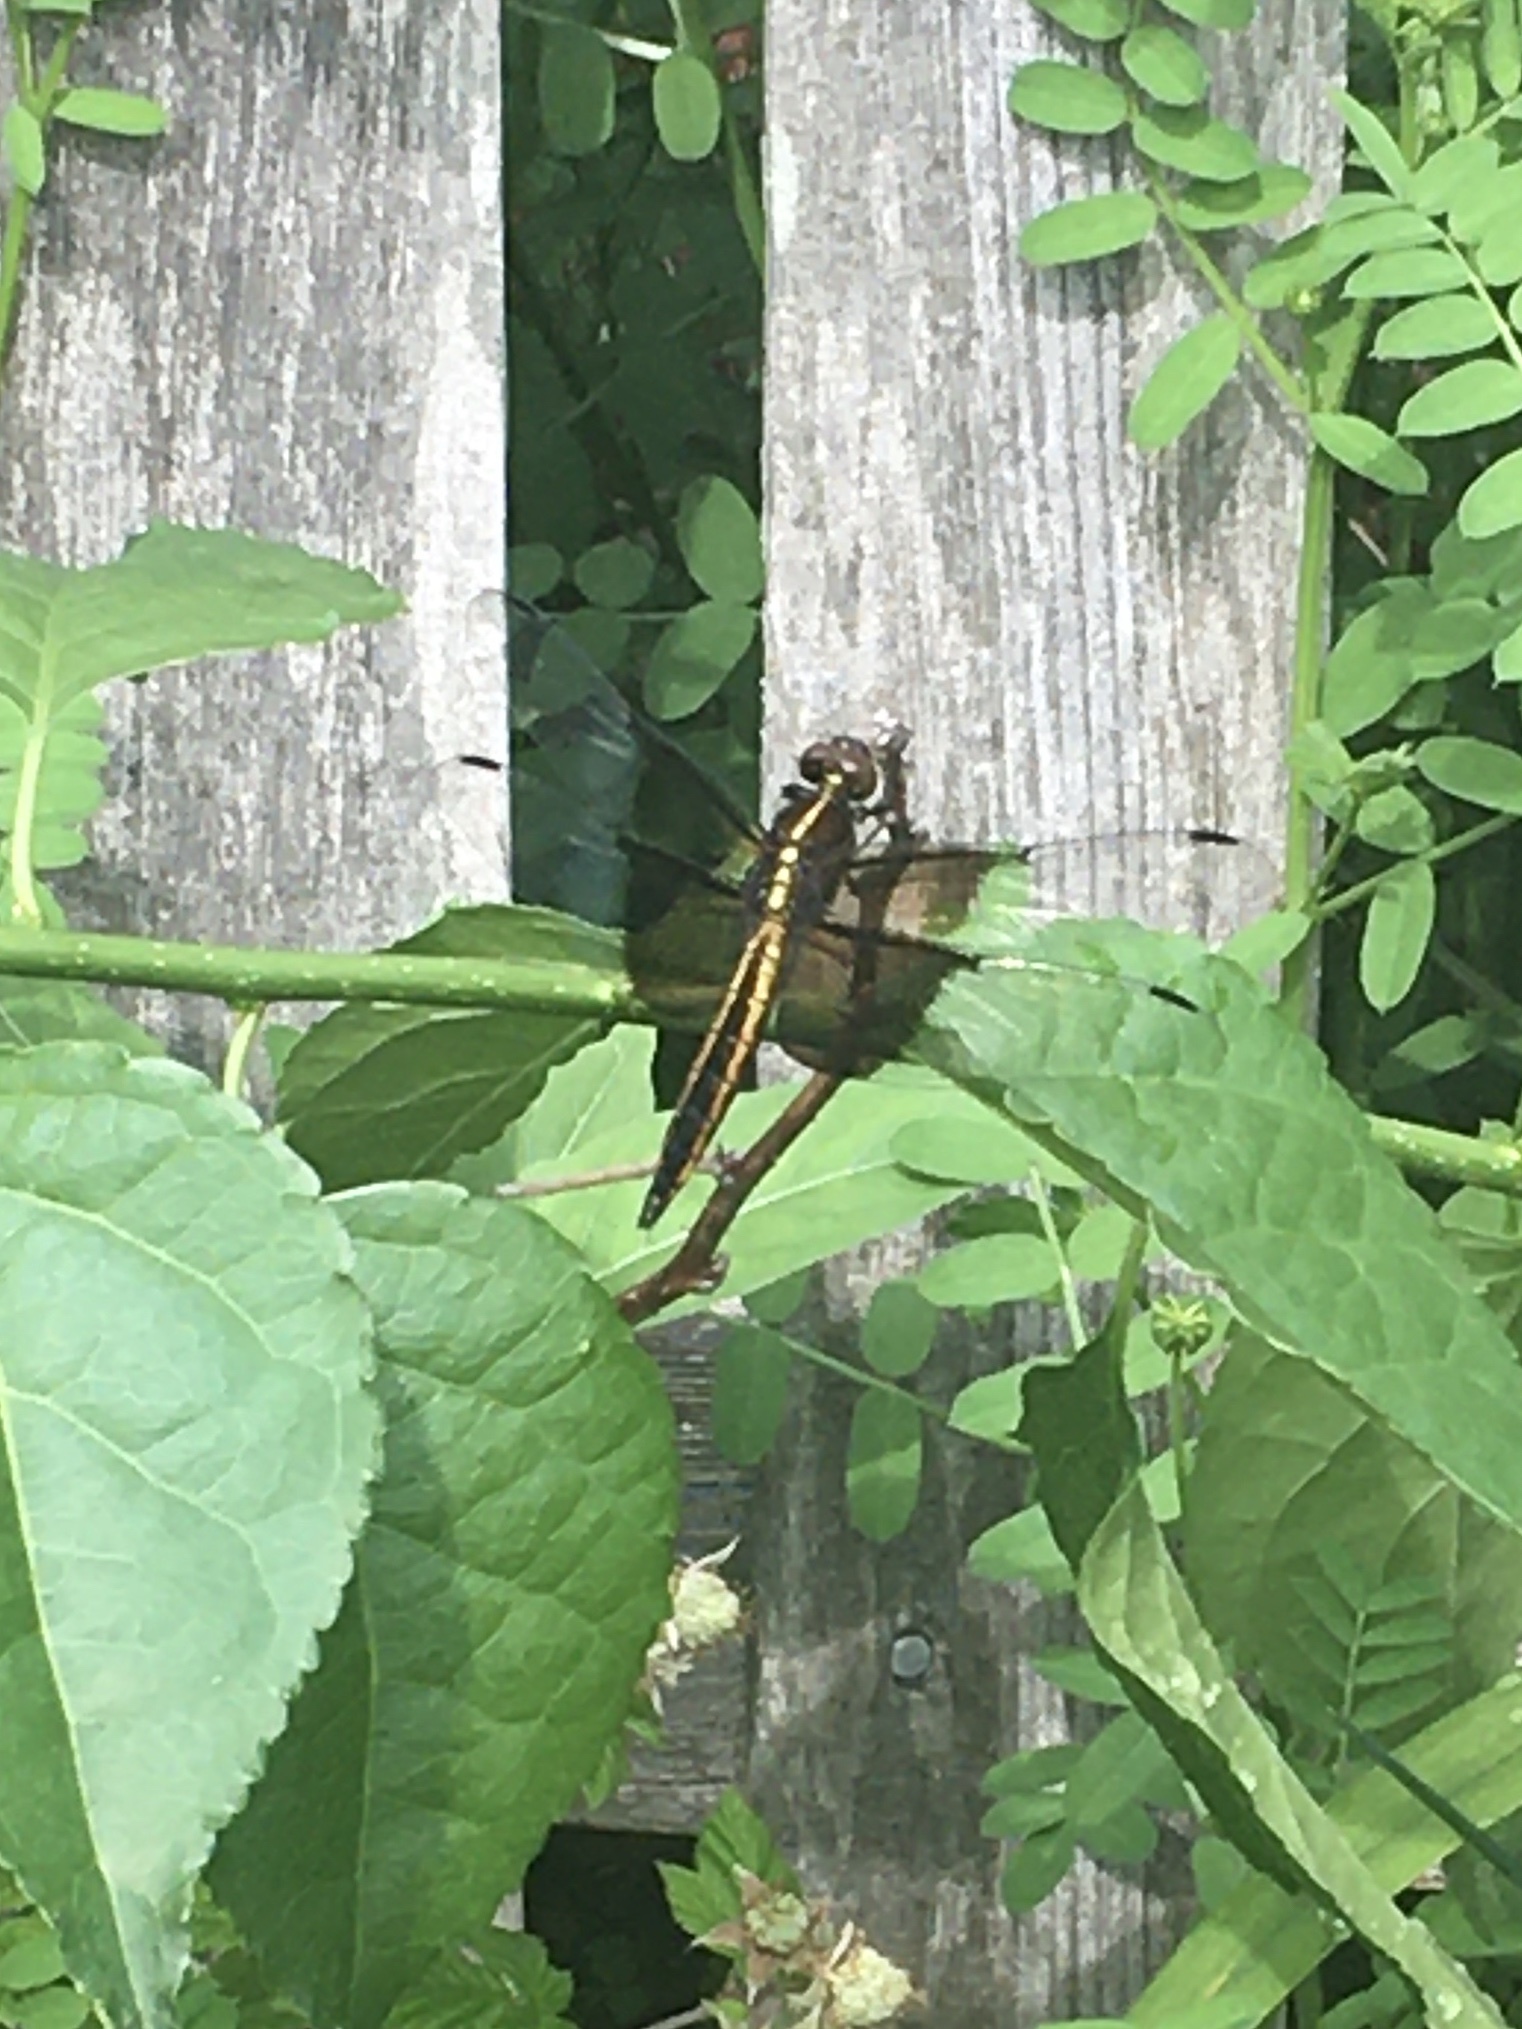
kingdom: Animalia
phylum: Arthropoda
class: Insecta
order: Odonata
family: Libellulidae
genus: Libellula
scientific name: Libellula luctuosa
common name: Widow skimmer
